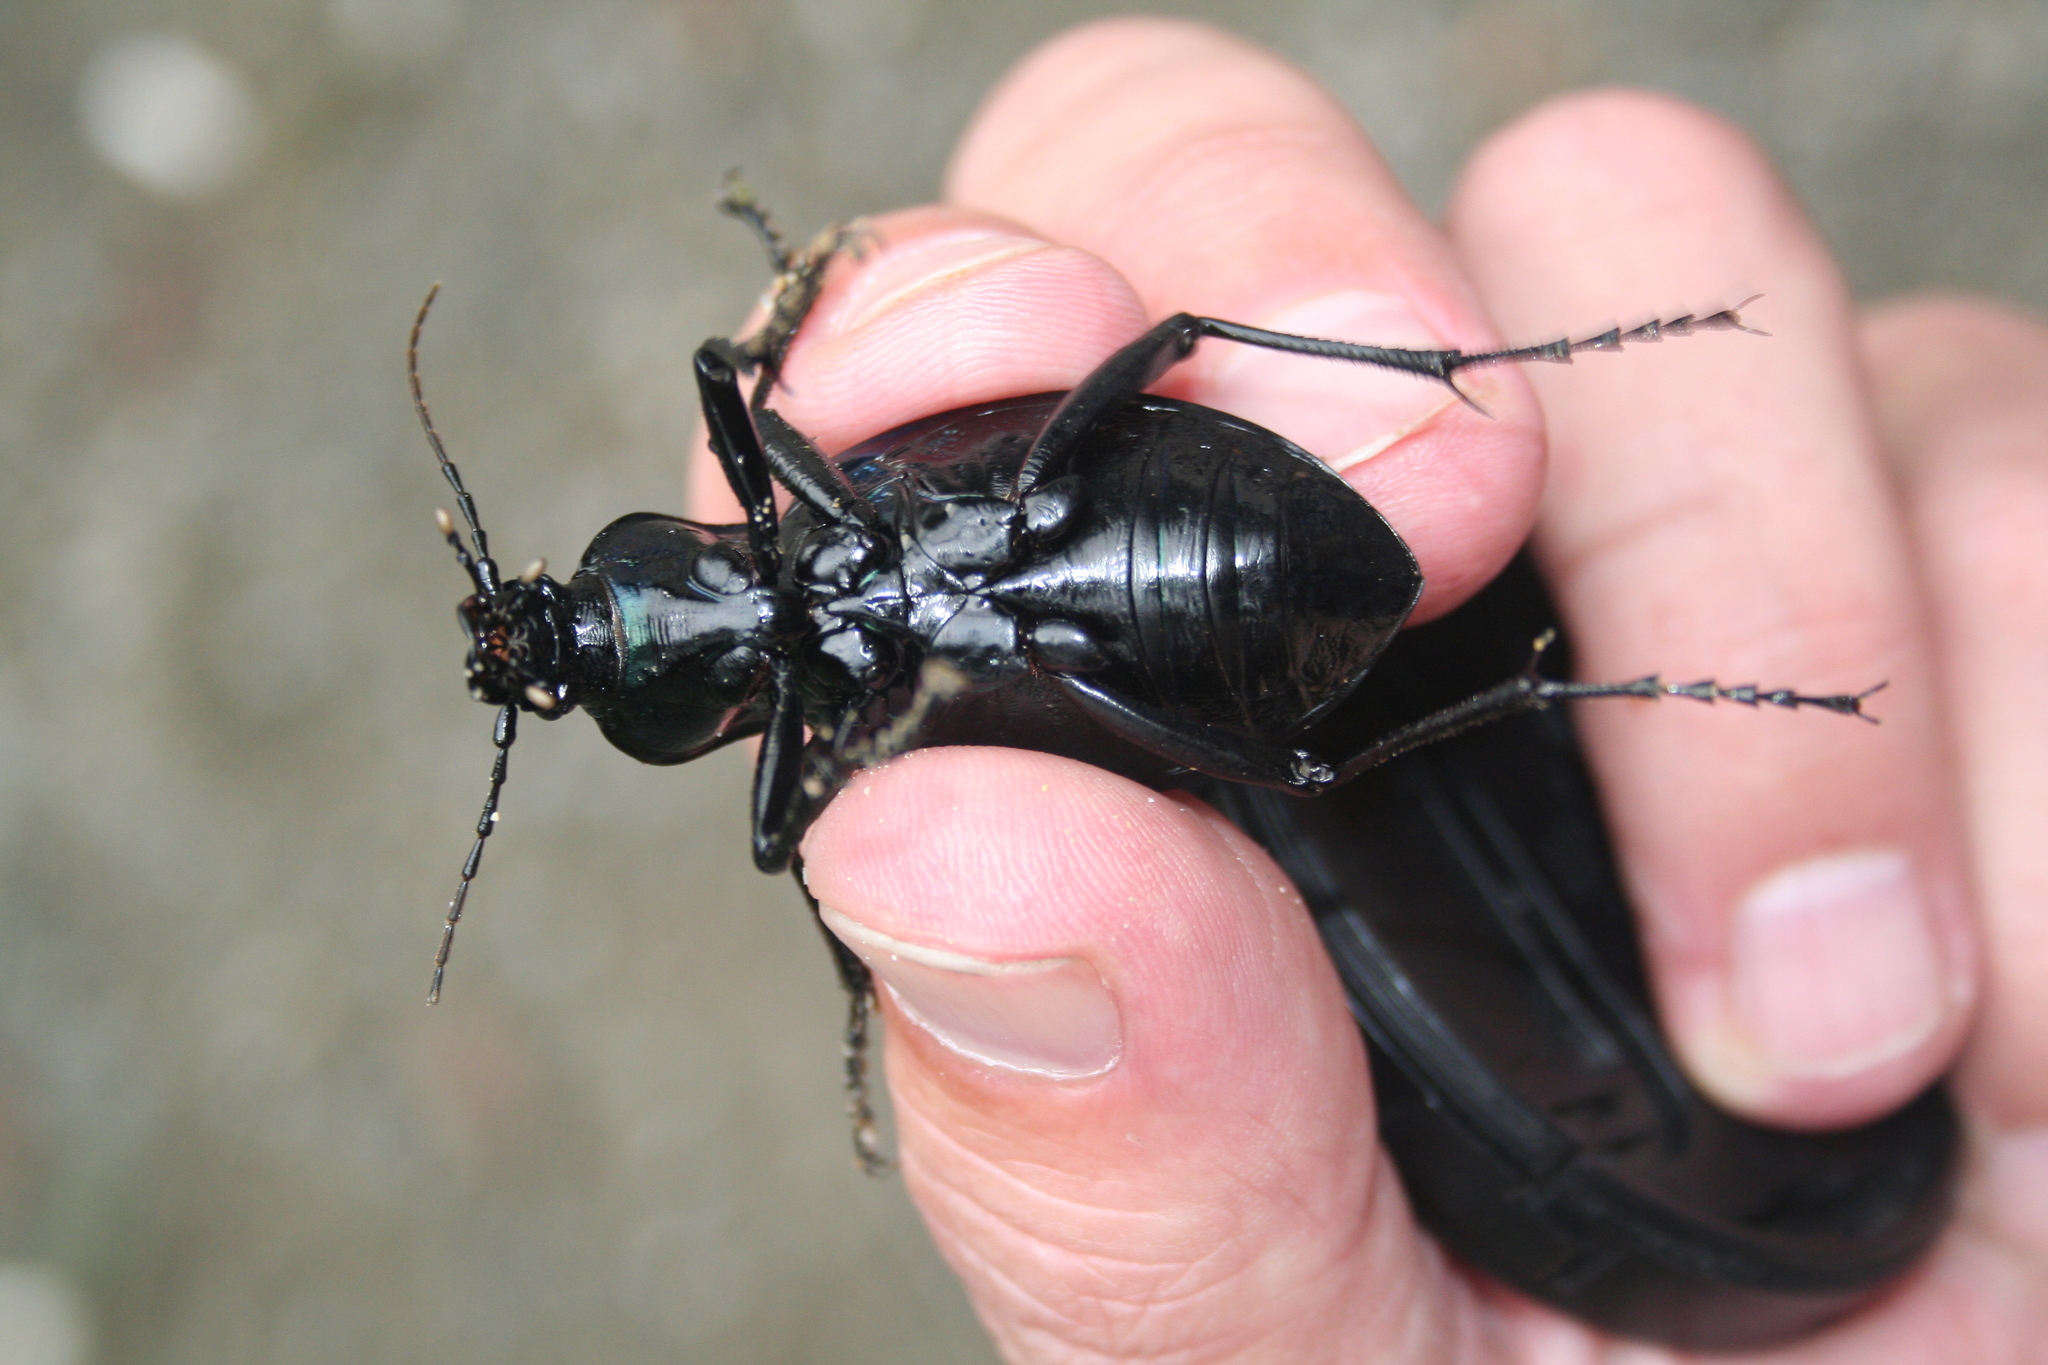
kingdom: Animalia
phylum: Arthropoda
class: Insecta
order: Coleoptera
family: Carabidae
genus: Carabus
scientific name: Carabus scabrosus
